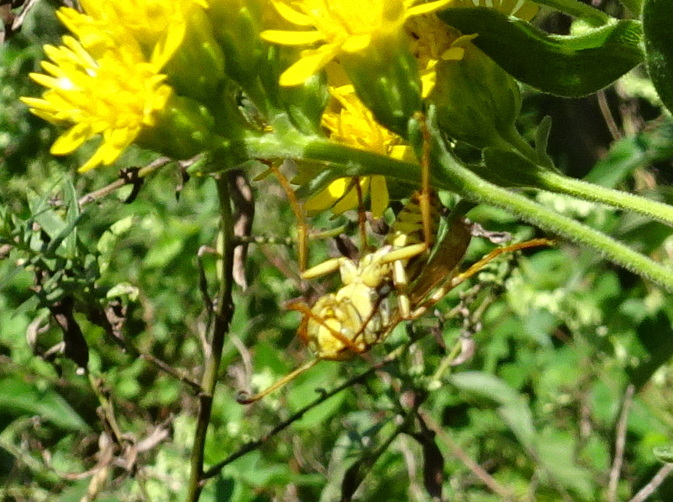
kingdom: Animalia
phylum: Arthropoda
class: Insecta
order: Hymenoptera
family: Eumenidae
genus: Polistes
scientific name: Polistes fuscatus
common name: Dark paper wasp
